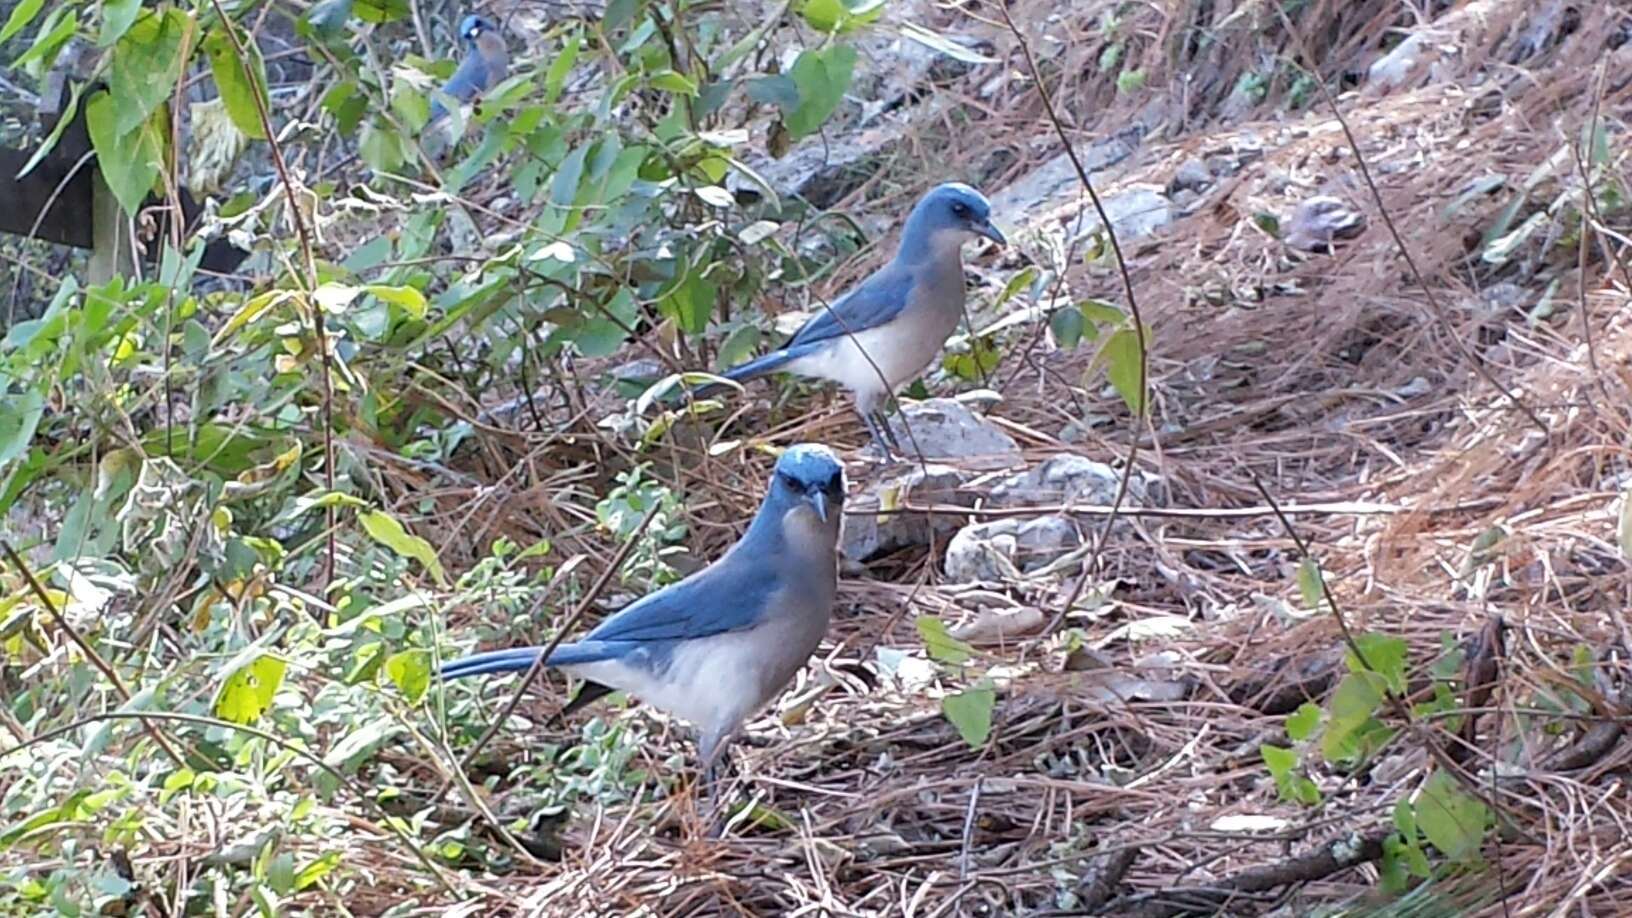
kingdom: Animalia
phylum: Chordata
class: Aves
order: Passeriformes
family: Corvidae
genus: Aphelocoma
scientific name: Aphelocoma wollweberi
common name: Mexican jay
